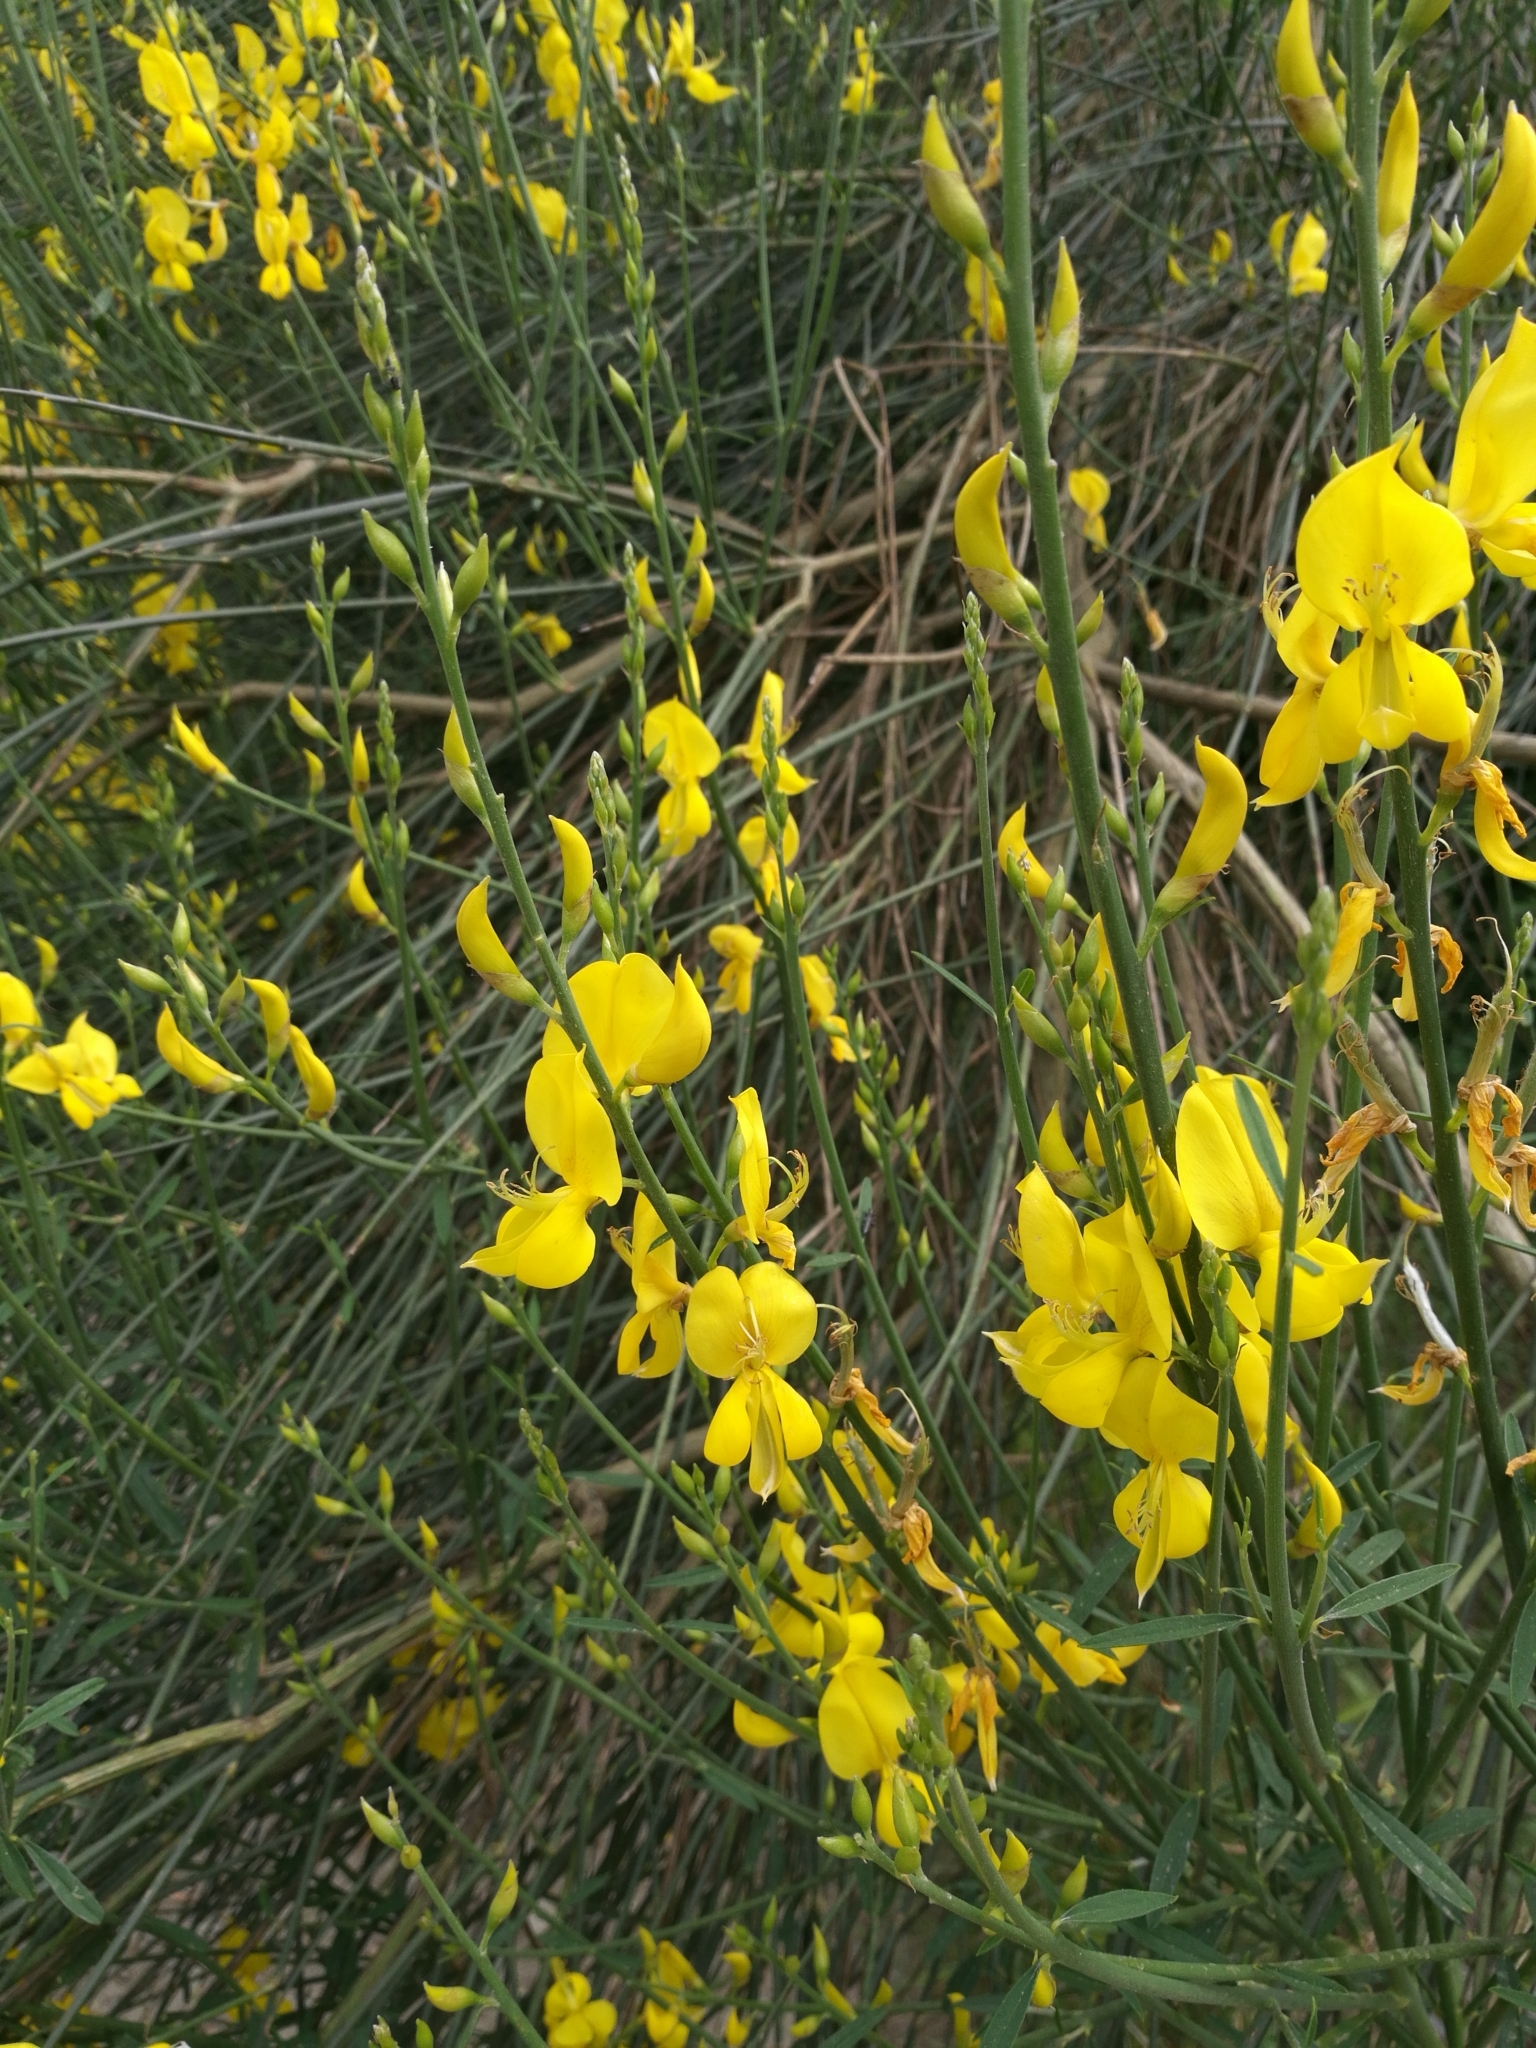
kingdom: Plantae
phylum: Tracheophyta
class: Magnoliopsida
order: Fabales
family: Fabaceae
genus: Spartium
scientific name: Spartium junceum
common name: Spanish broom
